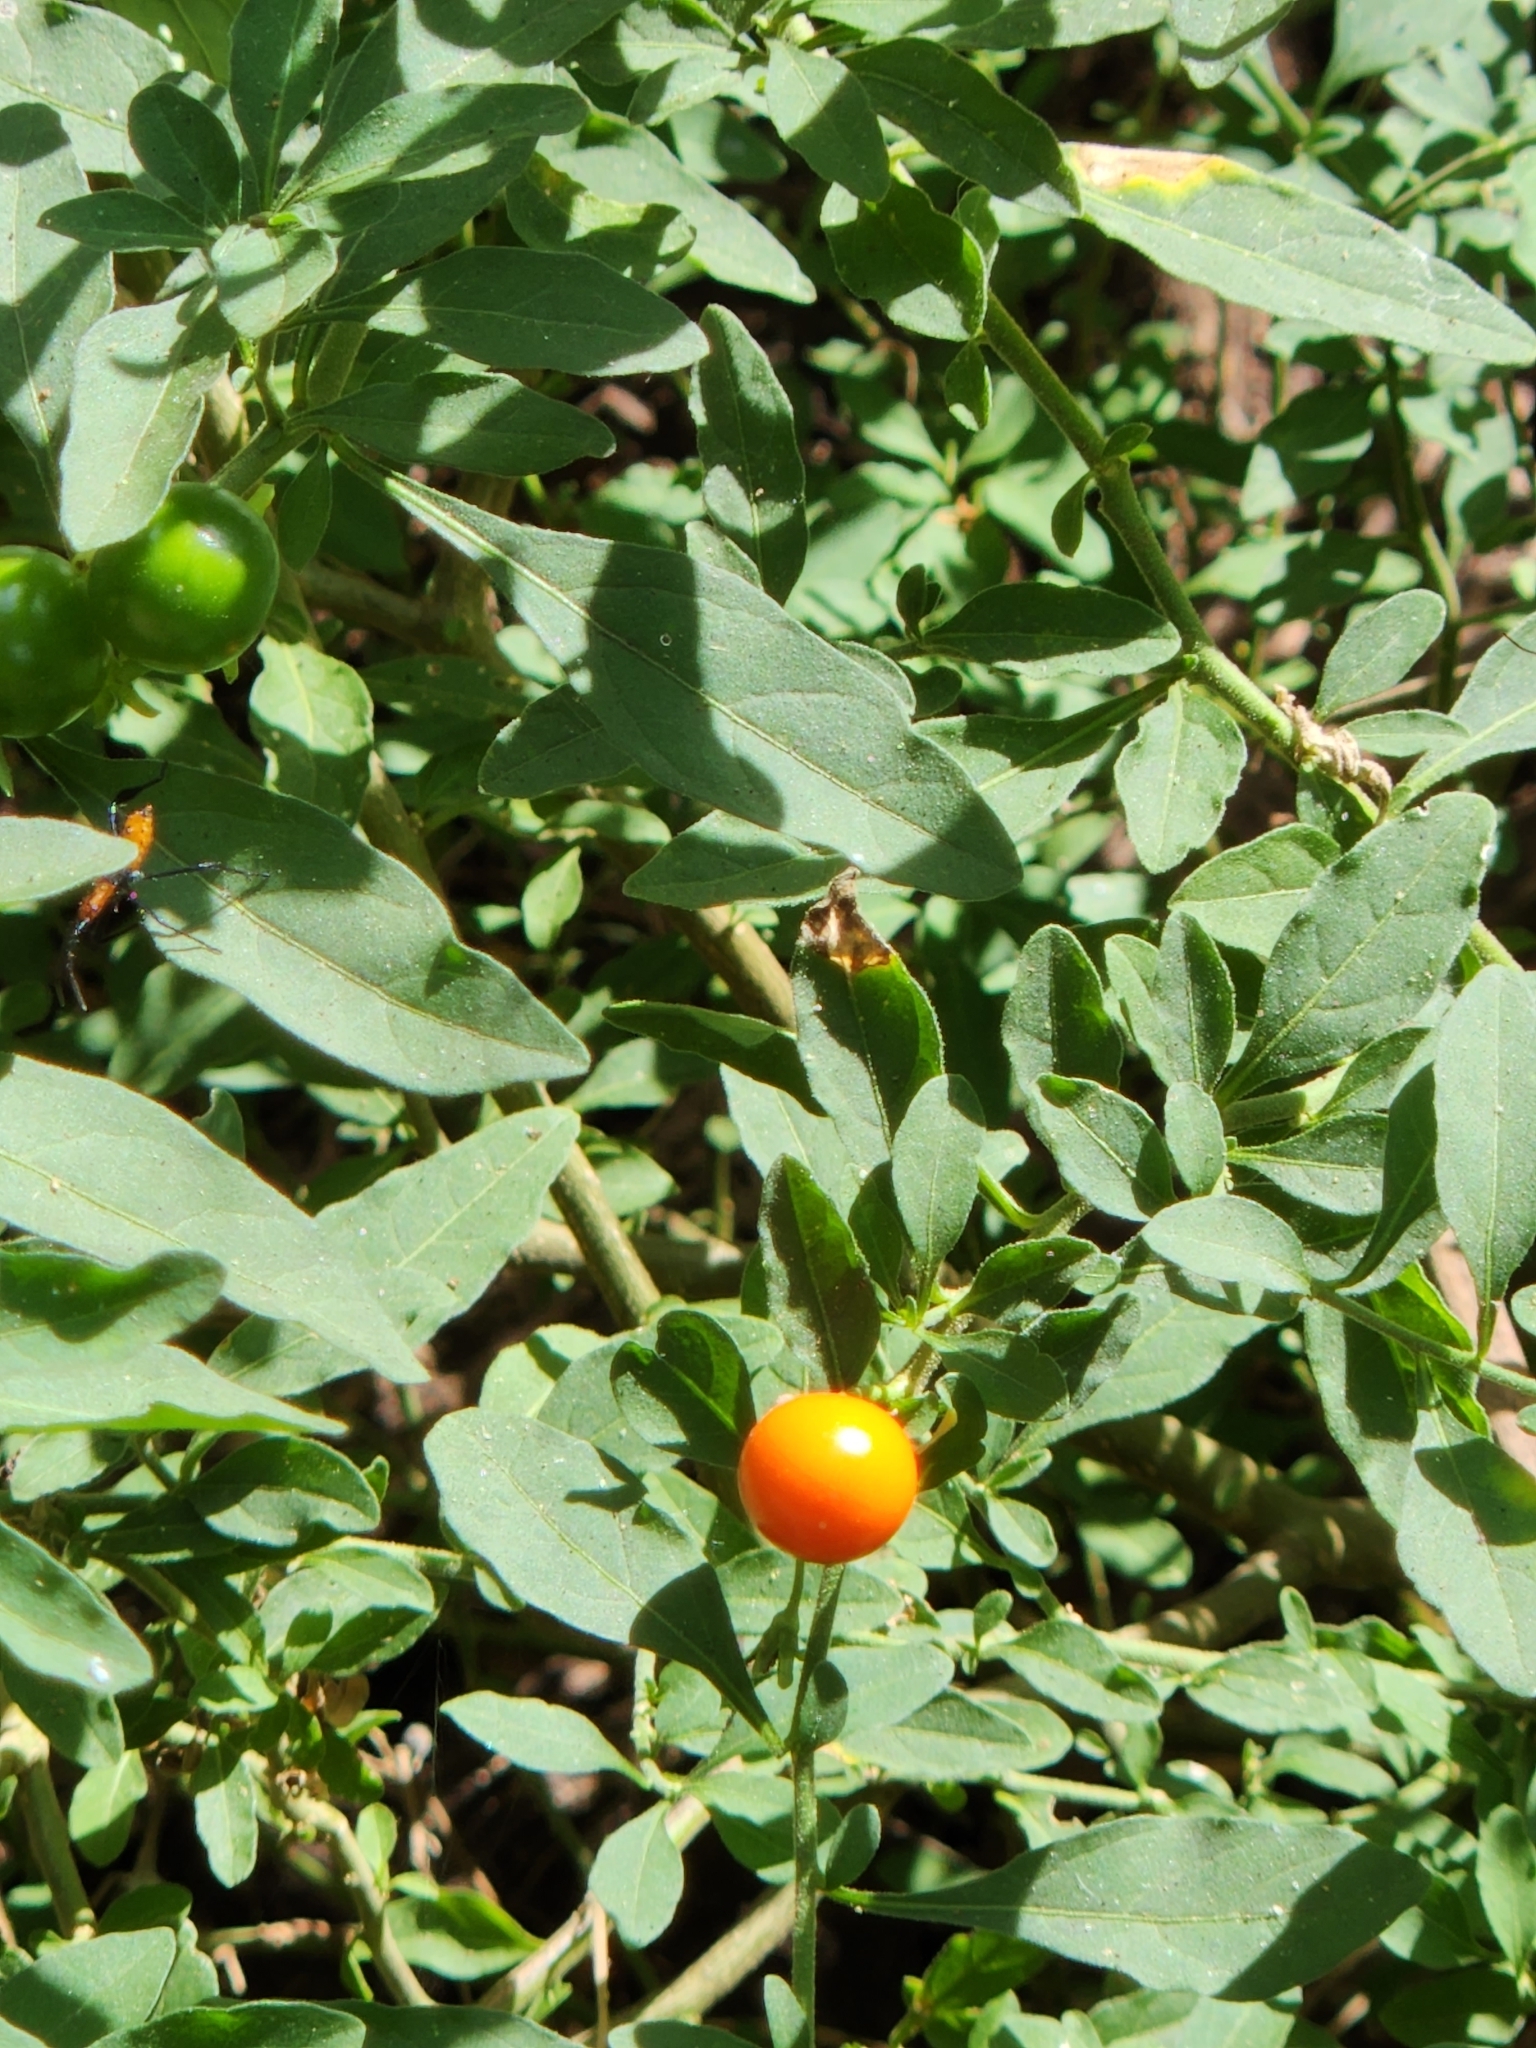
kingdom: Plantae
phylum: Tracheophyta
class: Magnoliopsida
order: Solanales
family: Solanaceae
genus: Solanum
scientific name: Solanum pseudocapsicum
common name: Jerusalem cherry
